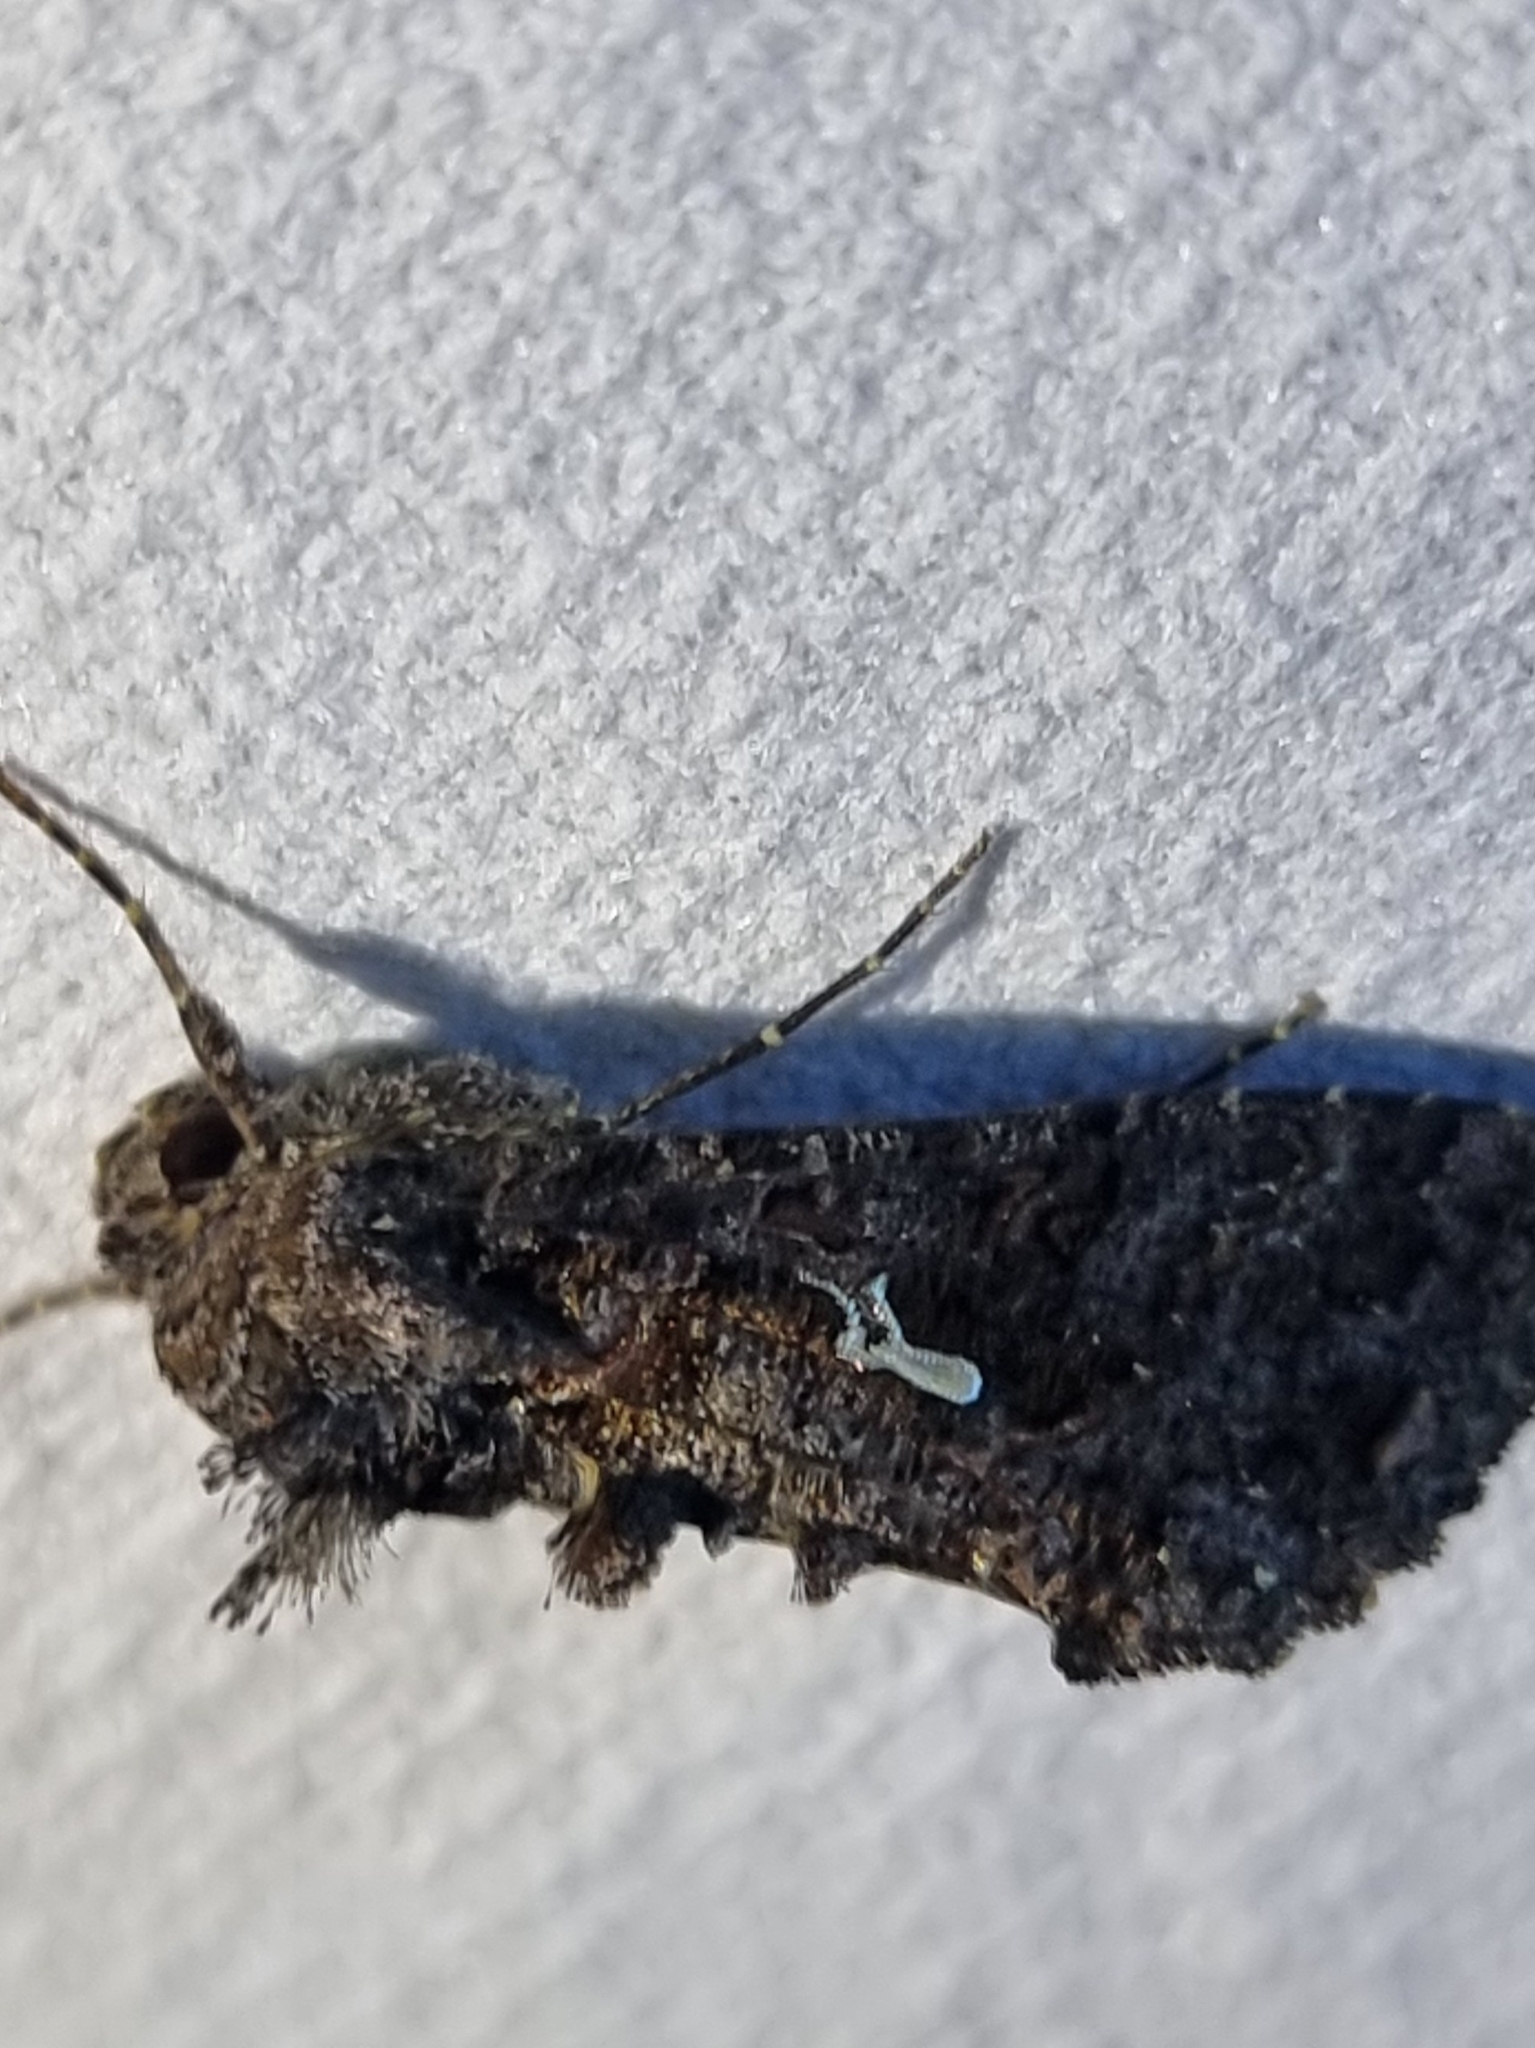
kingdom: Animalia
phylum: Arthropoda
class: Insecta
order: Lepidoptera
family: Noctuidae
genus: Ctenoplusia
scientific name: Ctenoplusia limbirena
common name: Scar bank gem
